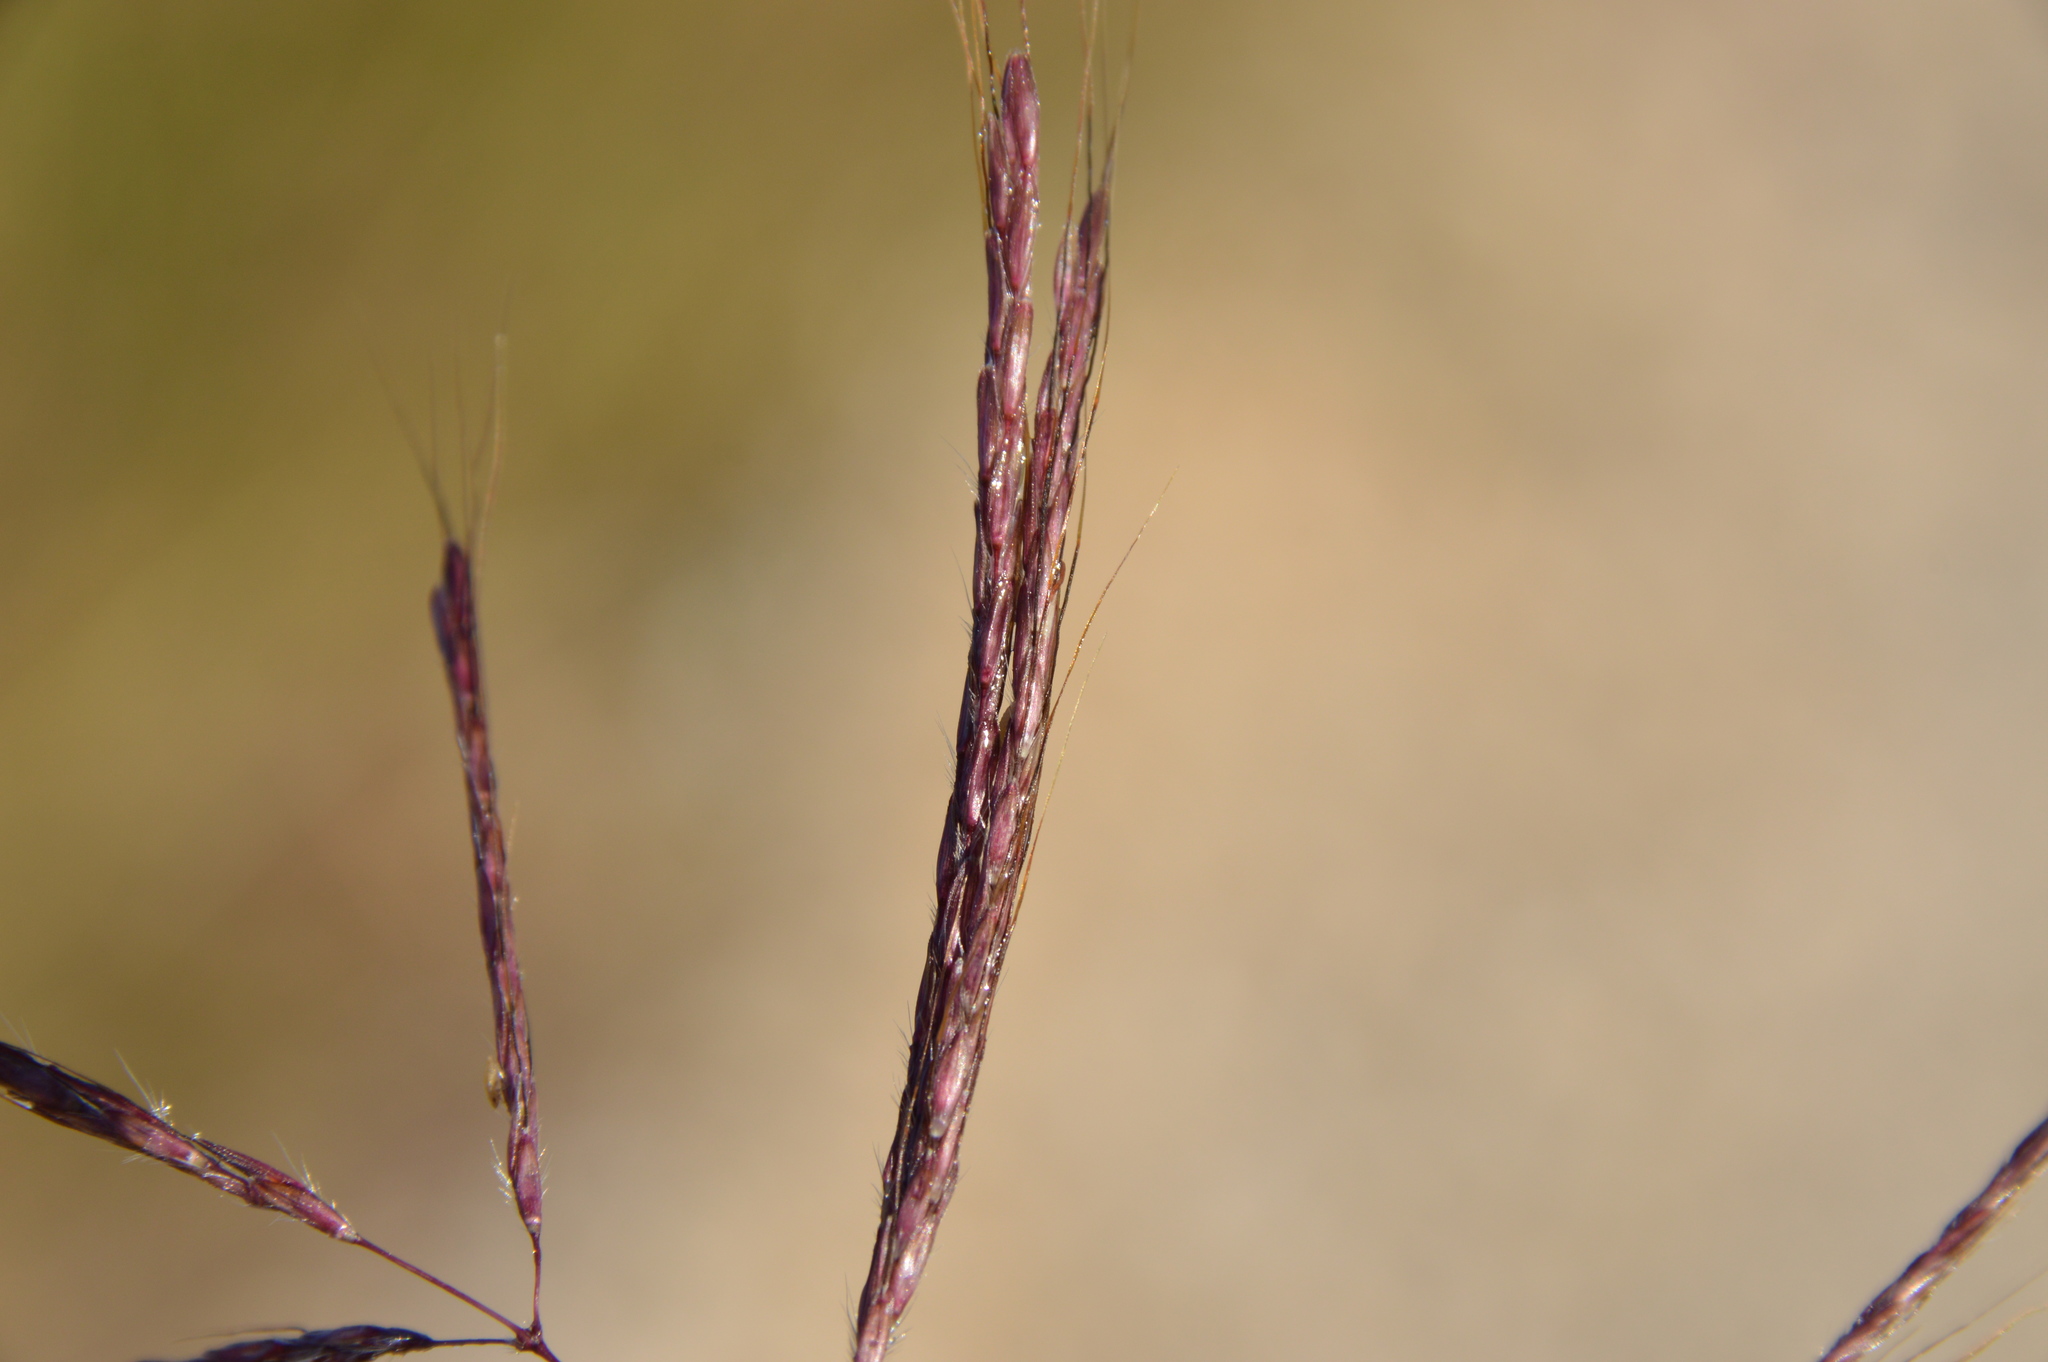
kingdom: Plantae
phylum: Tracheophyta
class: Liliopsida
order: Poales
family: Poaceae
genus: Bothriochloa
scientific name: Bothriochloa bladhii
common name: Caucasian bluestem
